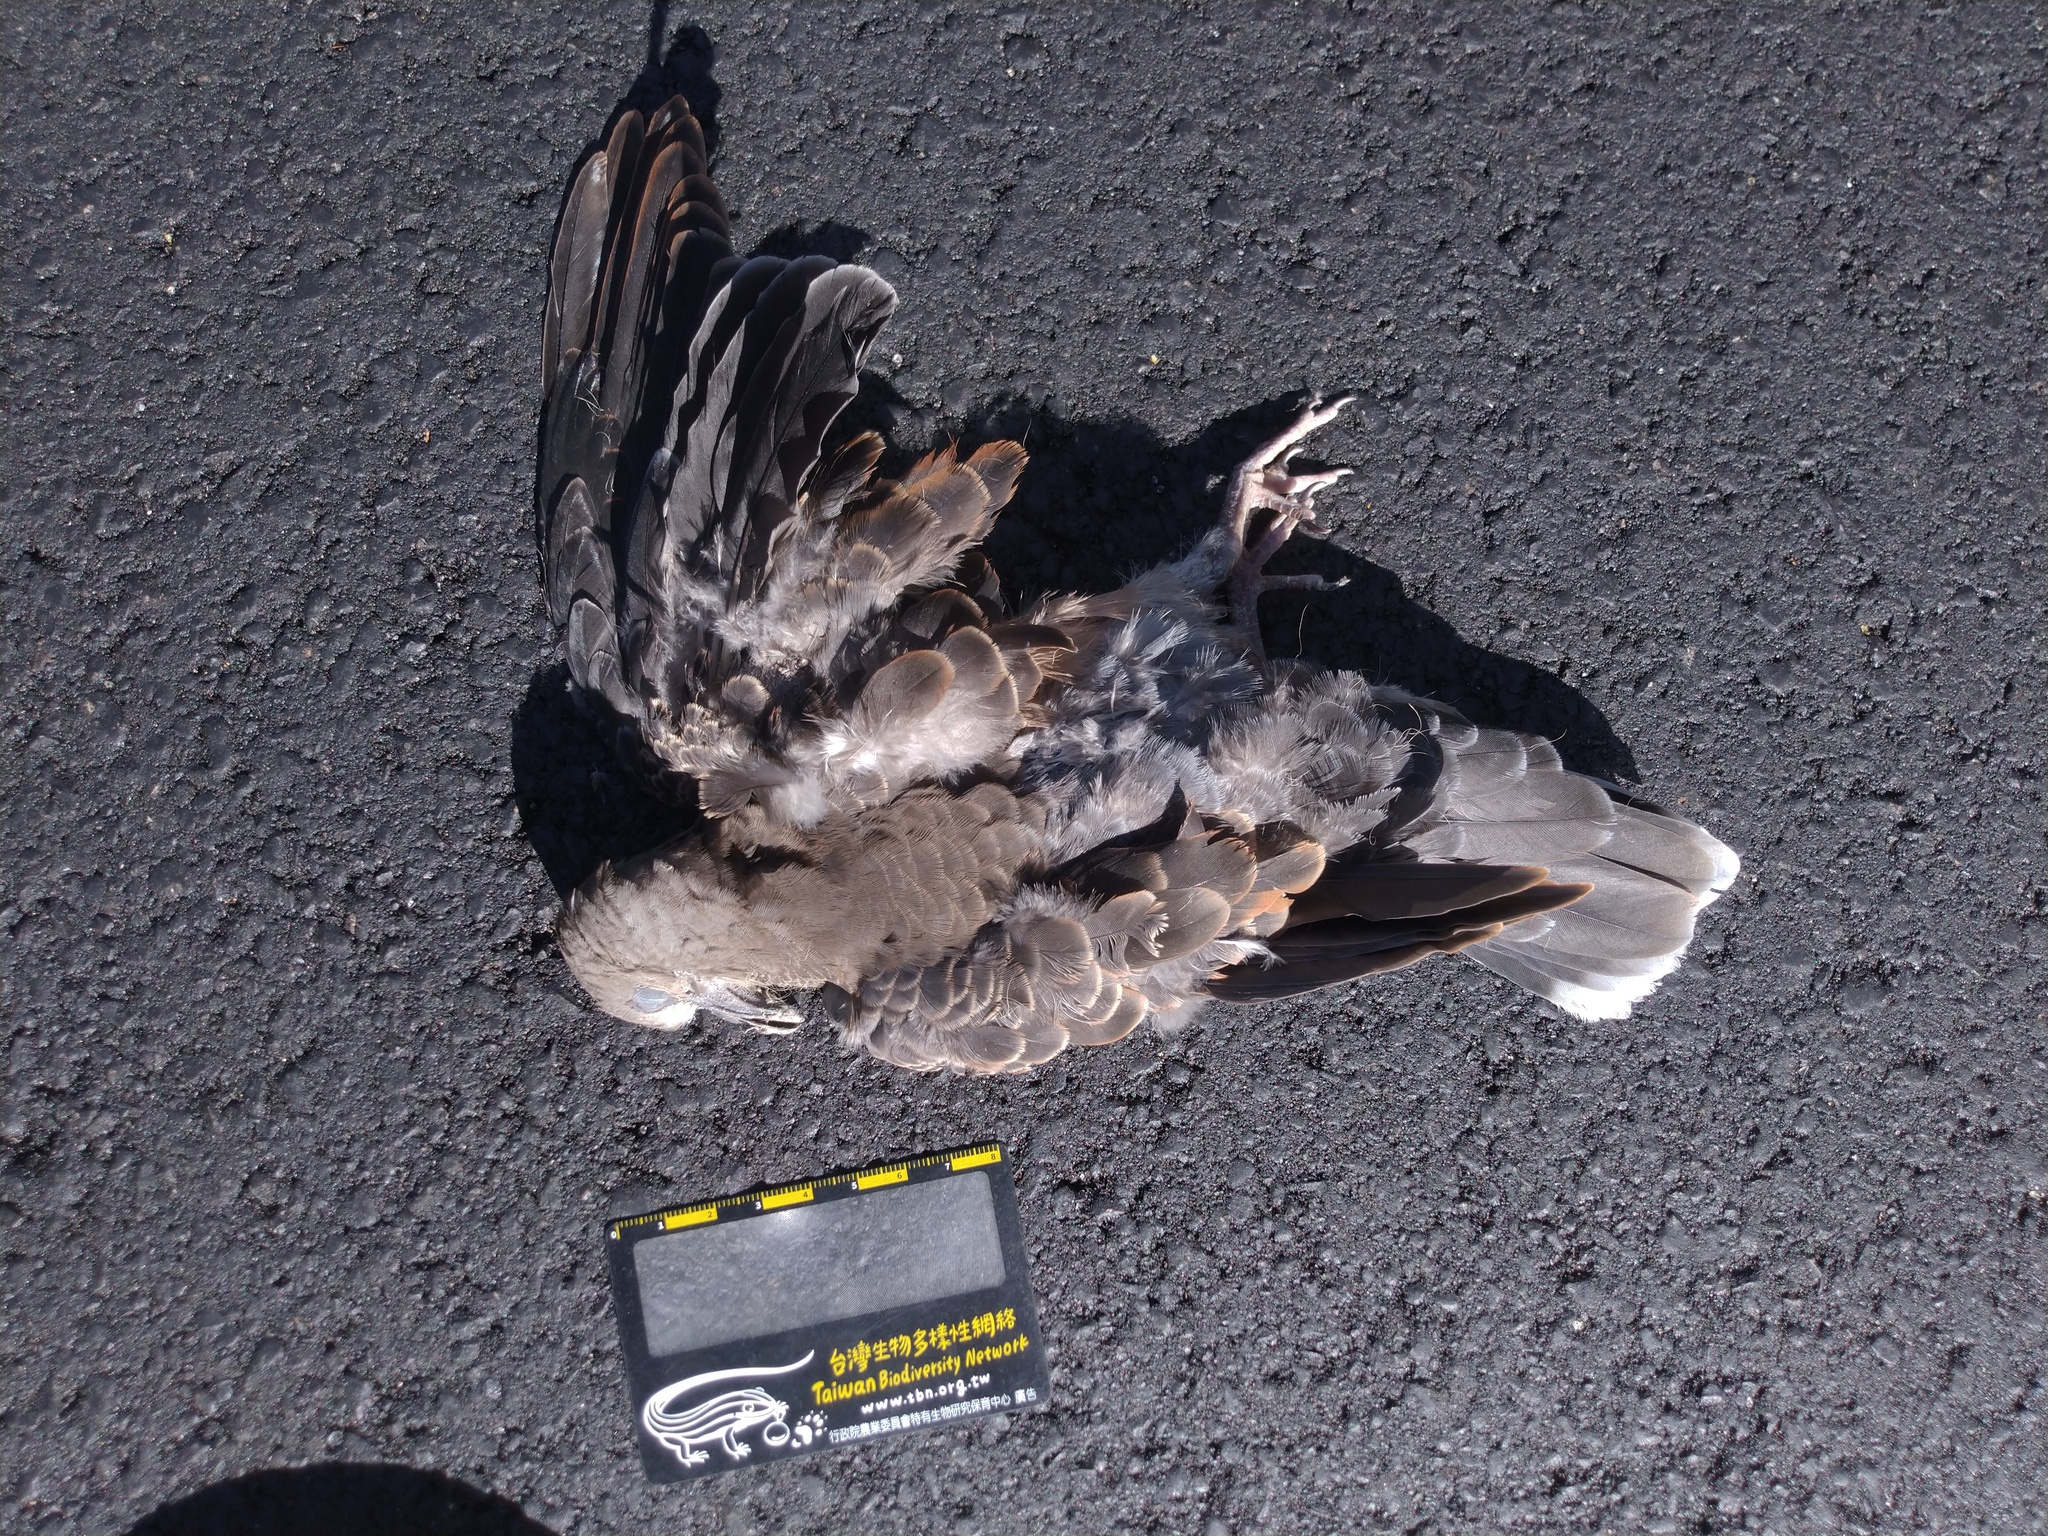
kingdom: Animalia
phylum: Chordata
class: Aves
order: Columbiformes
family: Columbidae
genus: Streptopelia
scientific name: Streptopelia orientalis
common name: Oriental turtle dove
